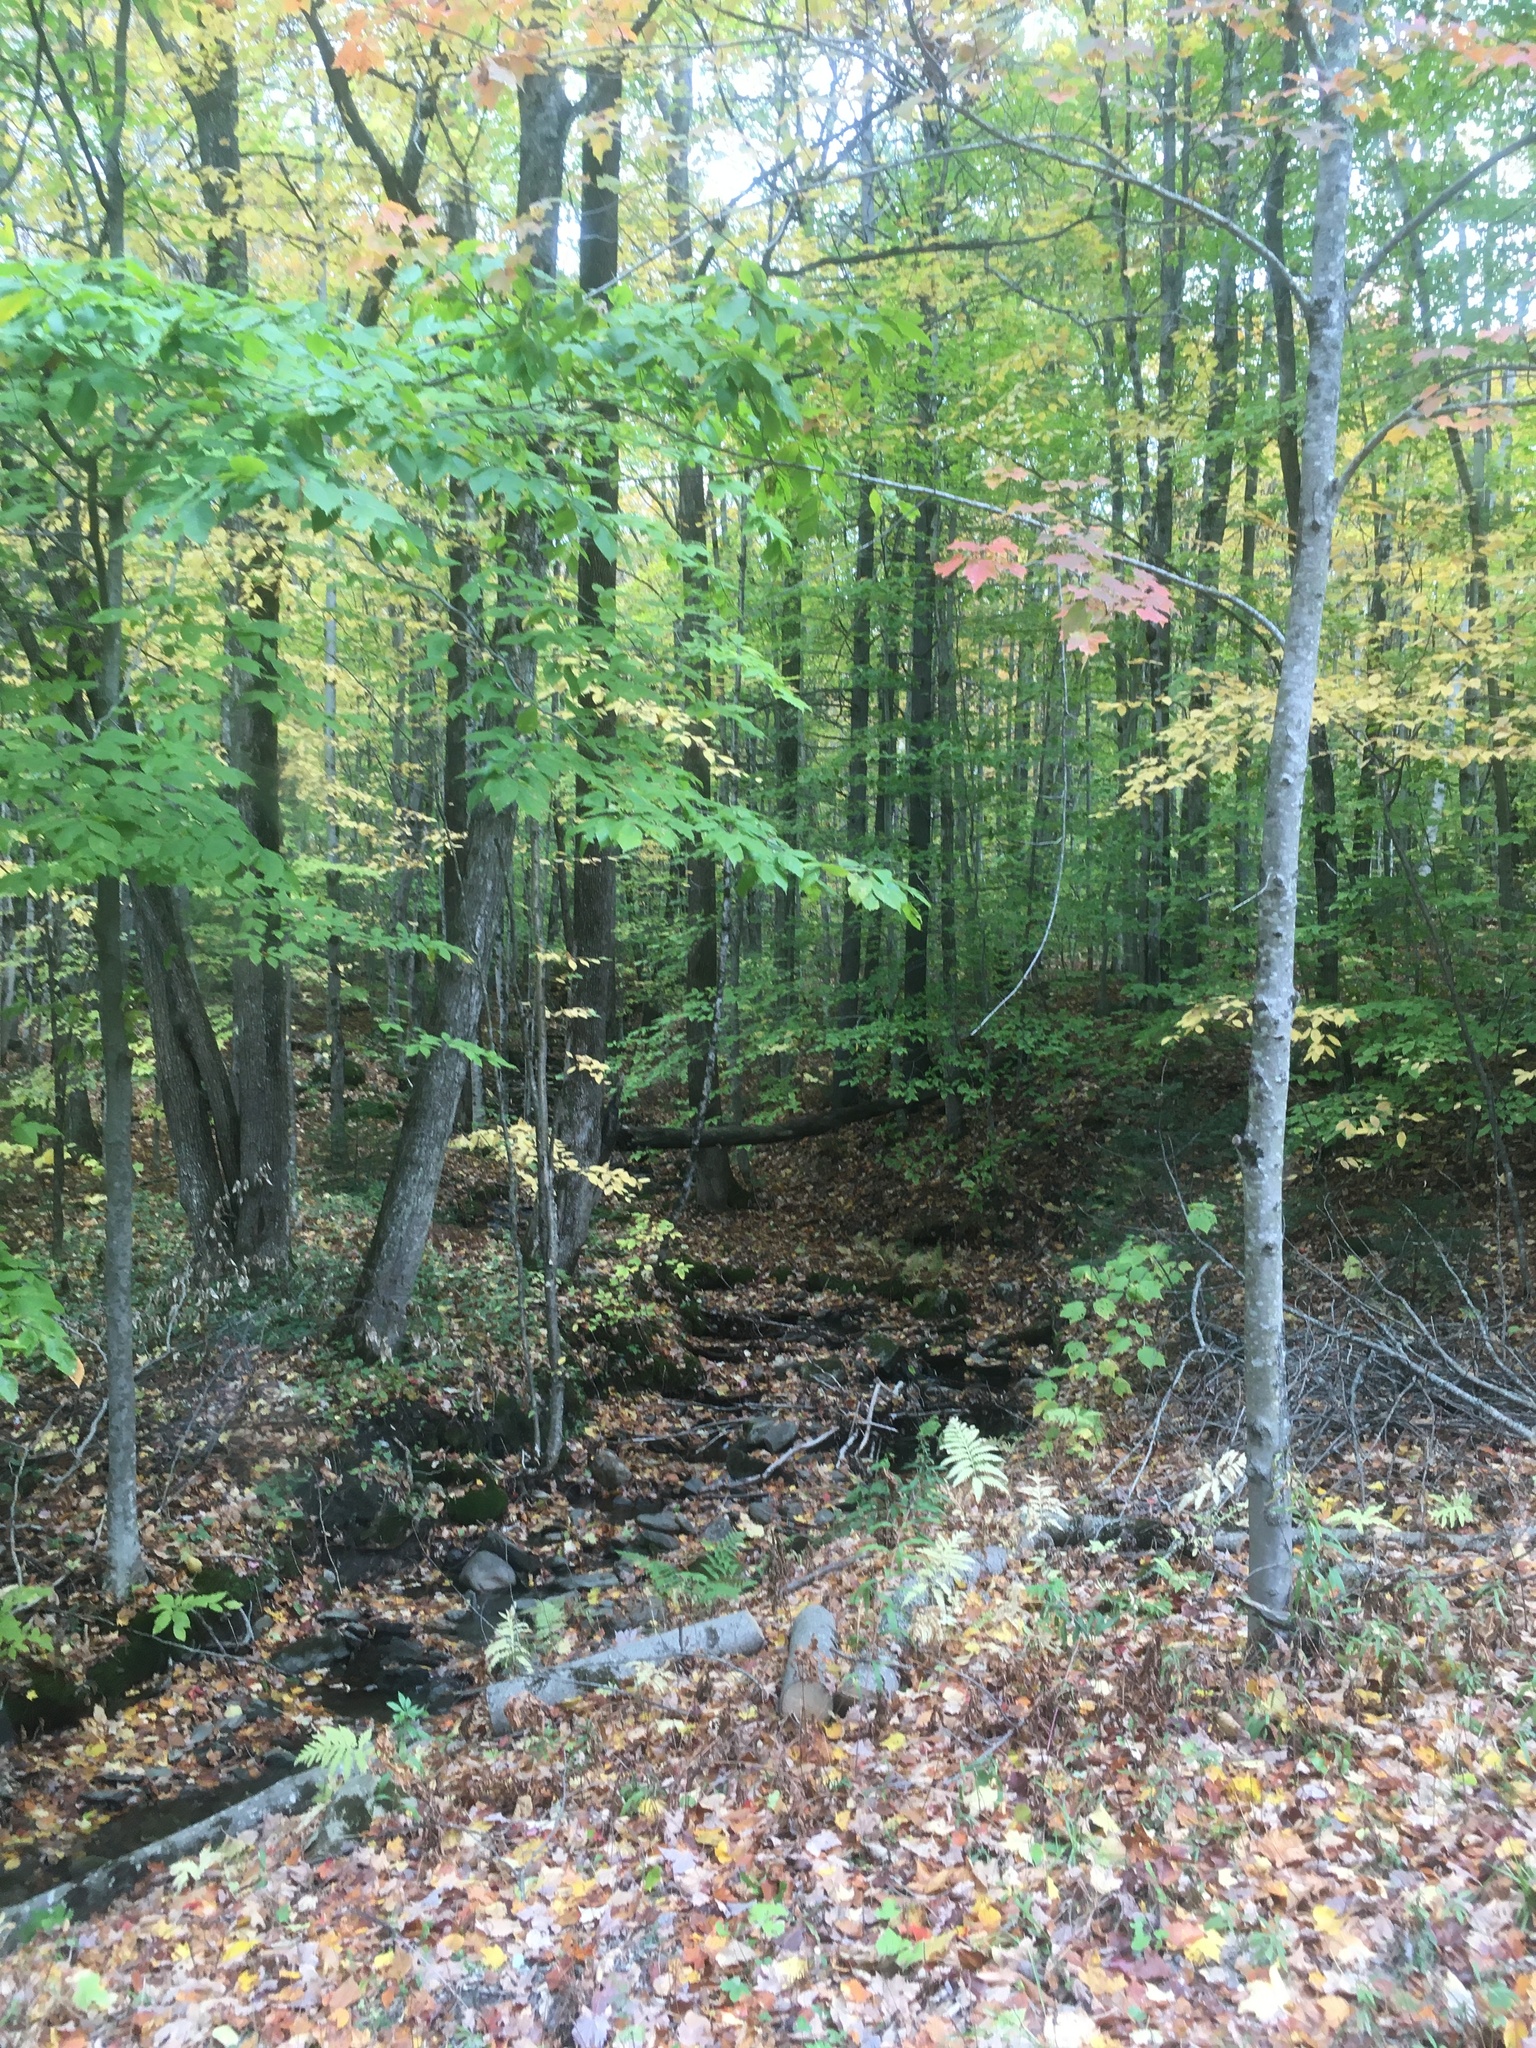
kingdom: Plantae
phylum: Tracheophyta
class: Magnoliopsida
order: Sapindales
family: Sapindaceae
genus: Acer
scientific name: Acer rubrum
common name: Red maple
